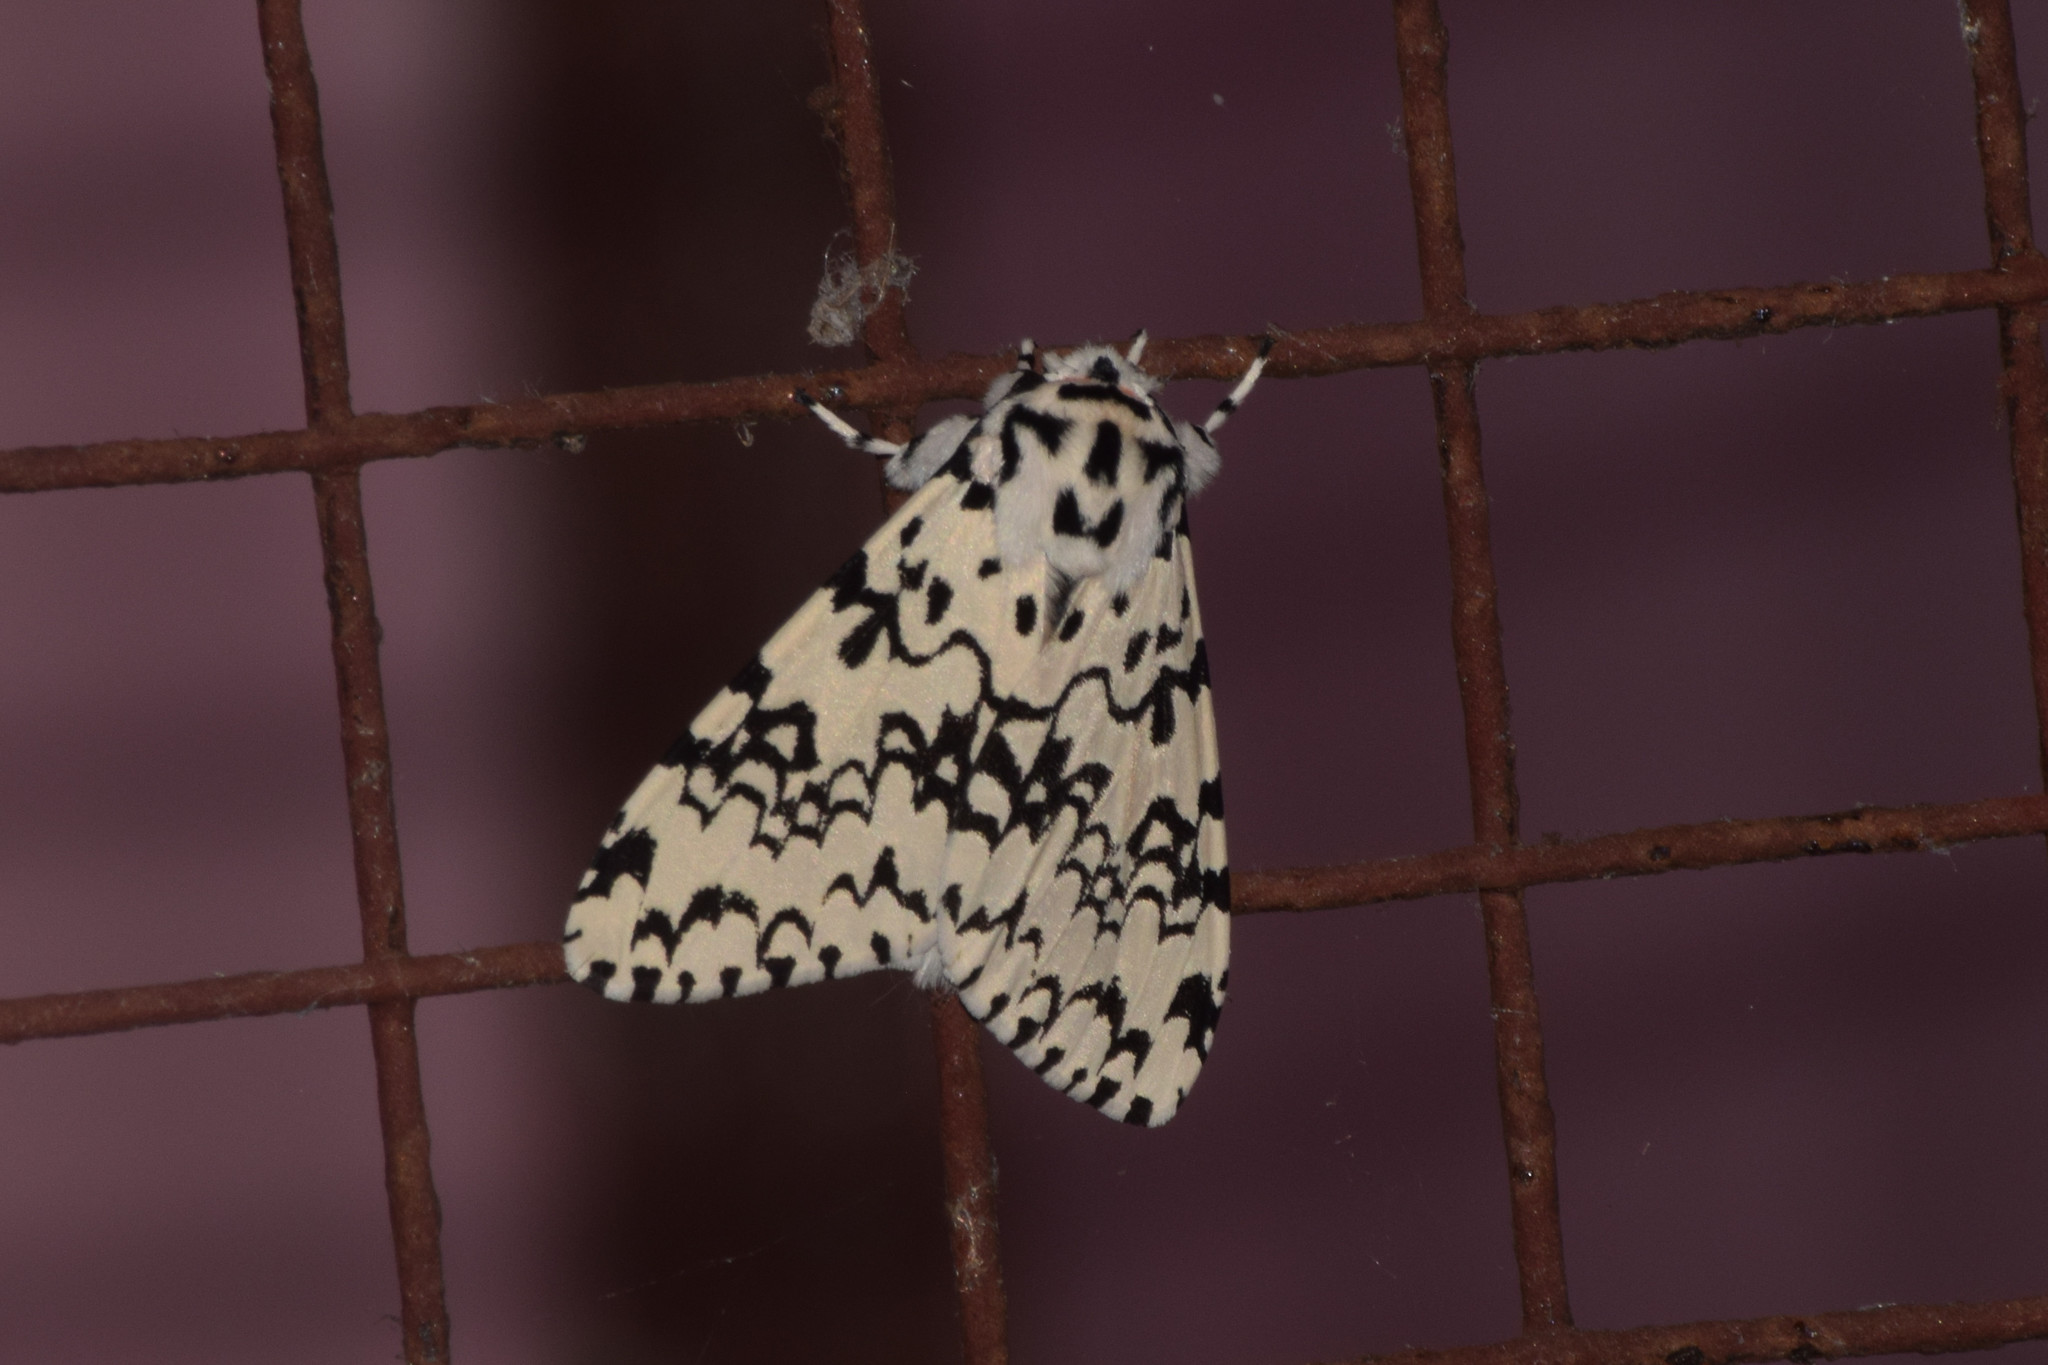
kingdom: Animalia
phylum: Arthropoda
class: Insecta
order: Lepidoptera
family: Erebidae
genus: Lymantria
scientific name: Lymantria concolor
